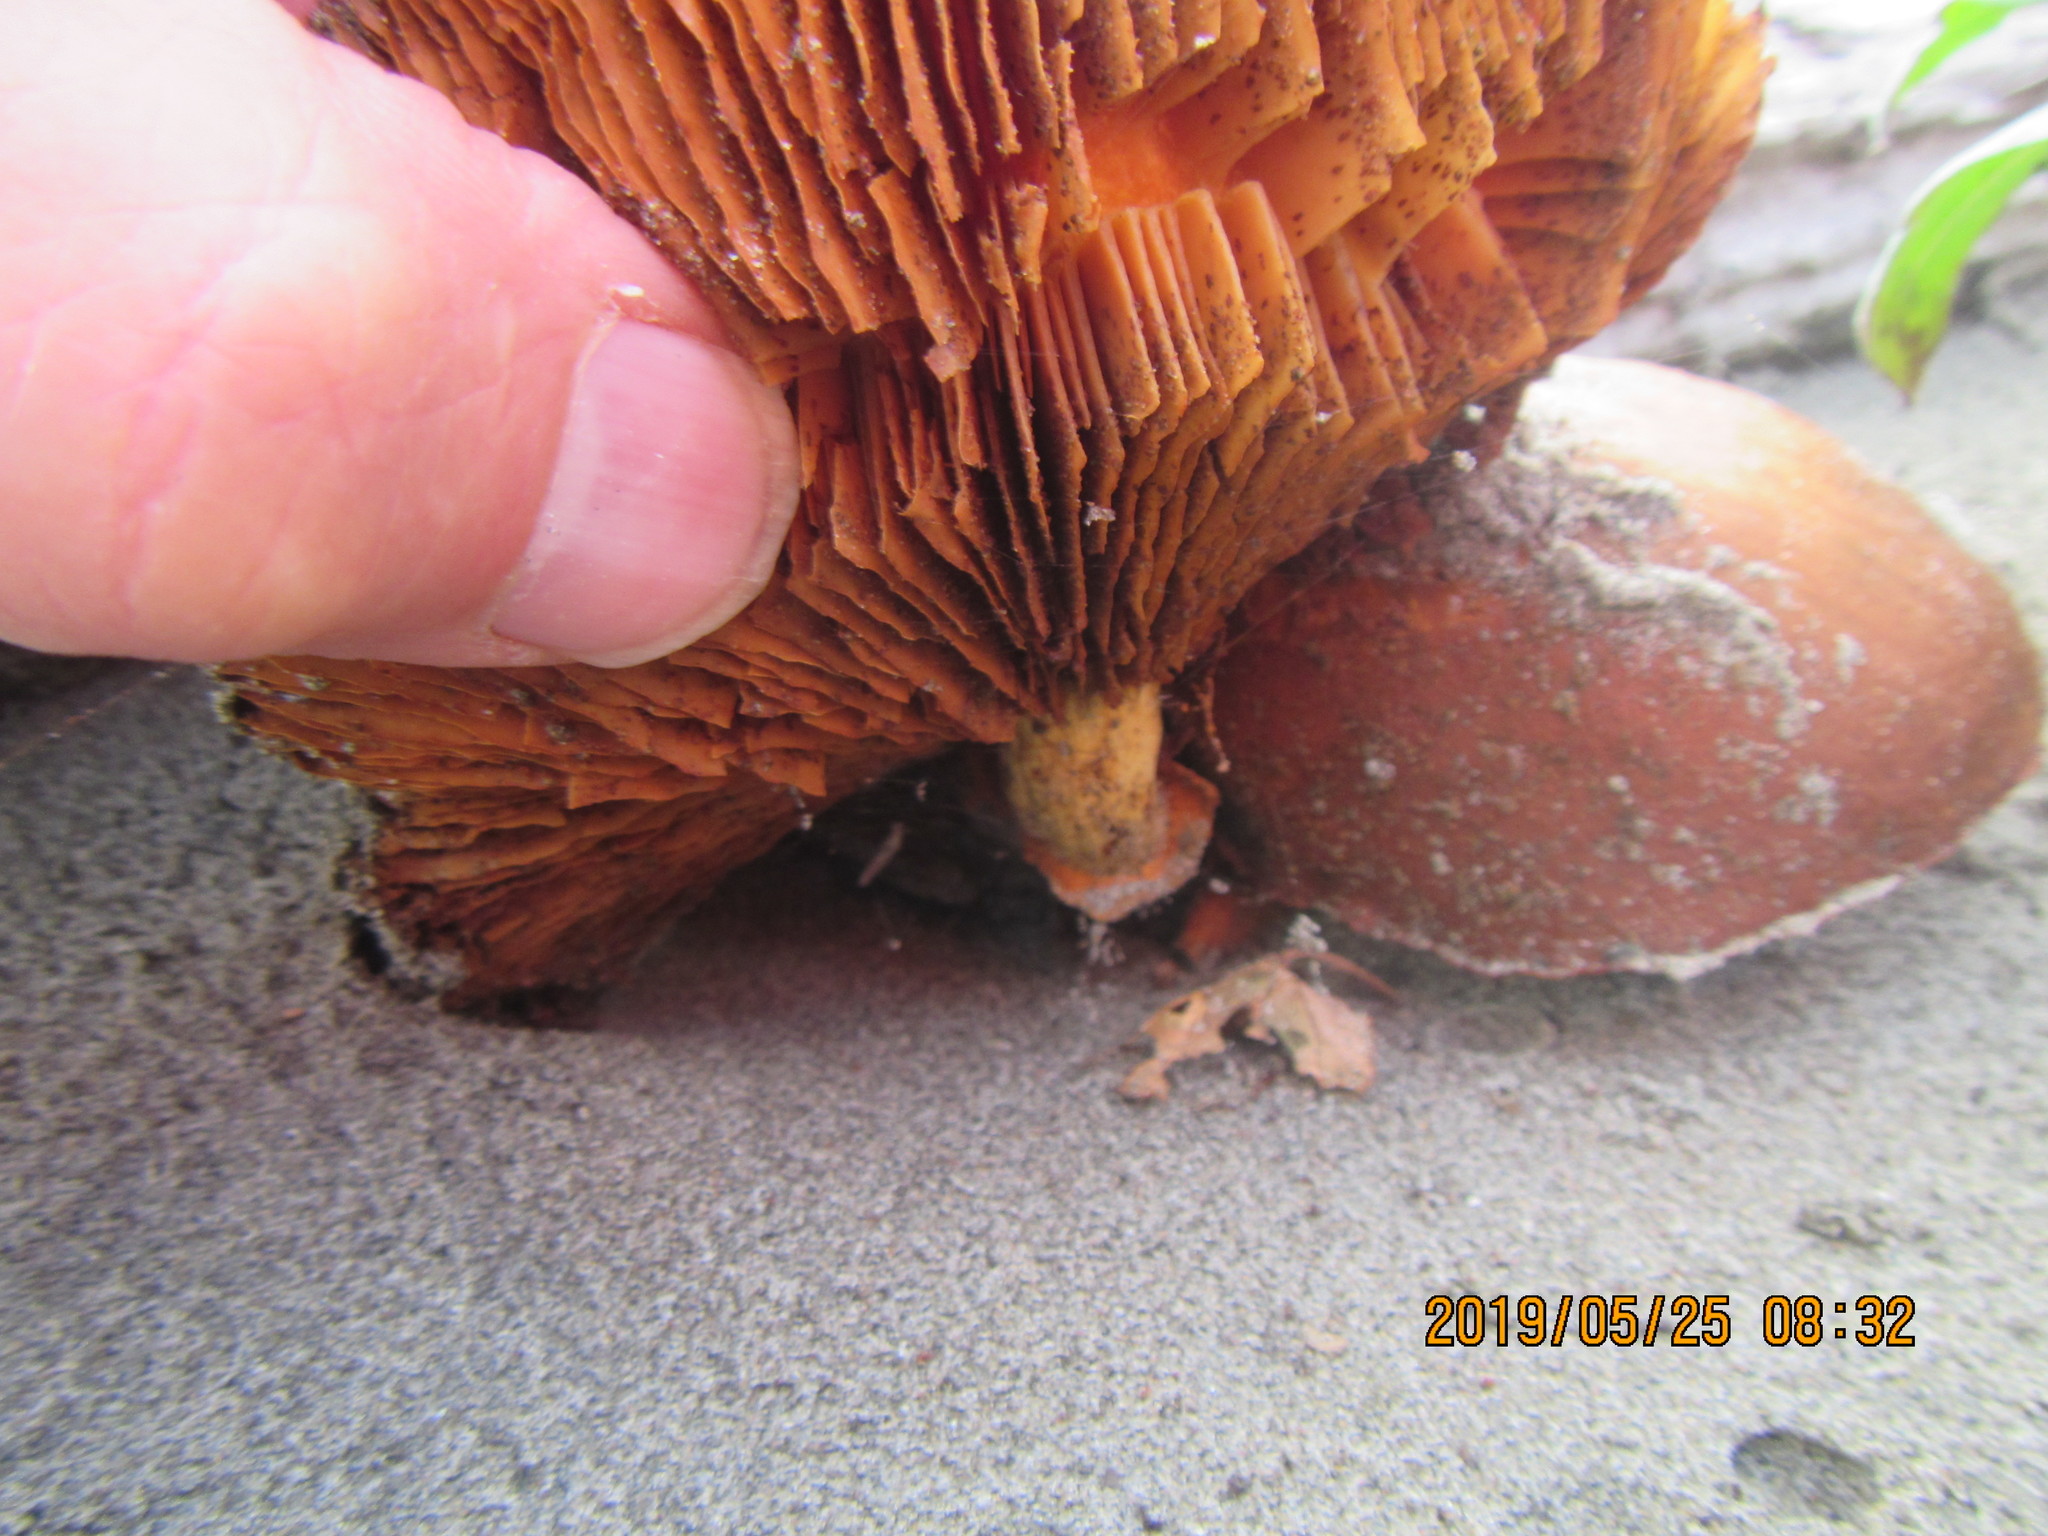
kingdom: Fungi
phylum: Basidiomycota
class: Agaricomycetes
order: Agaricales
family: Hymenogastraceae
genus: Gymnopilus
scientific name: Gymnopilus junonius
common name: Spectacular rustgill
